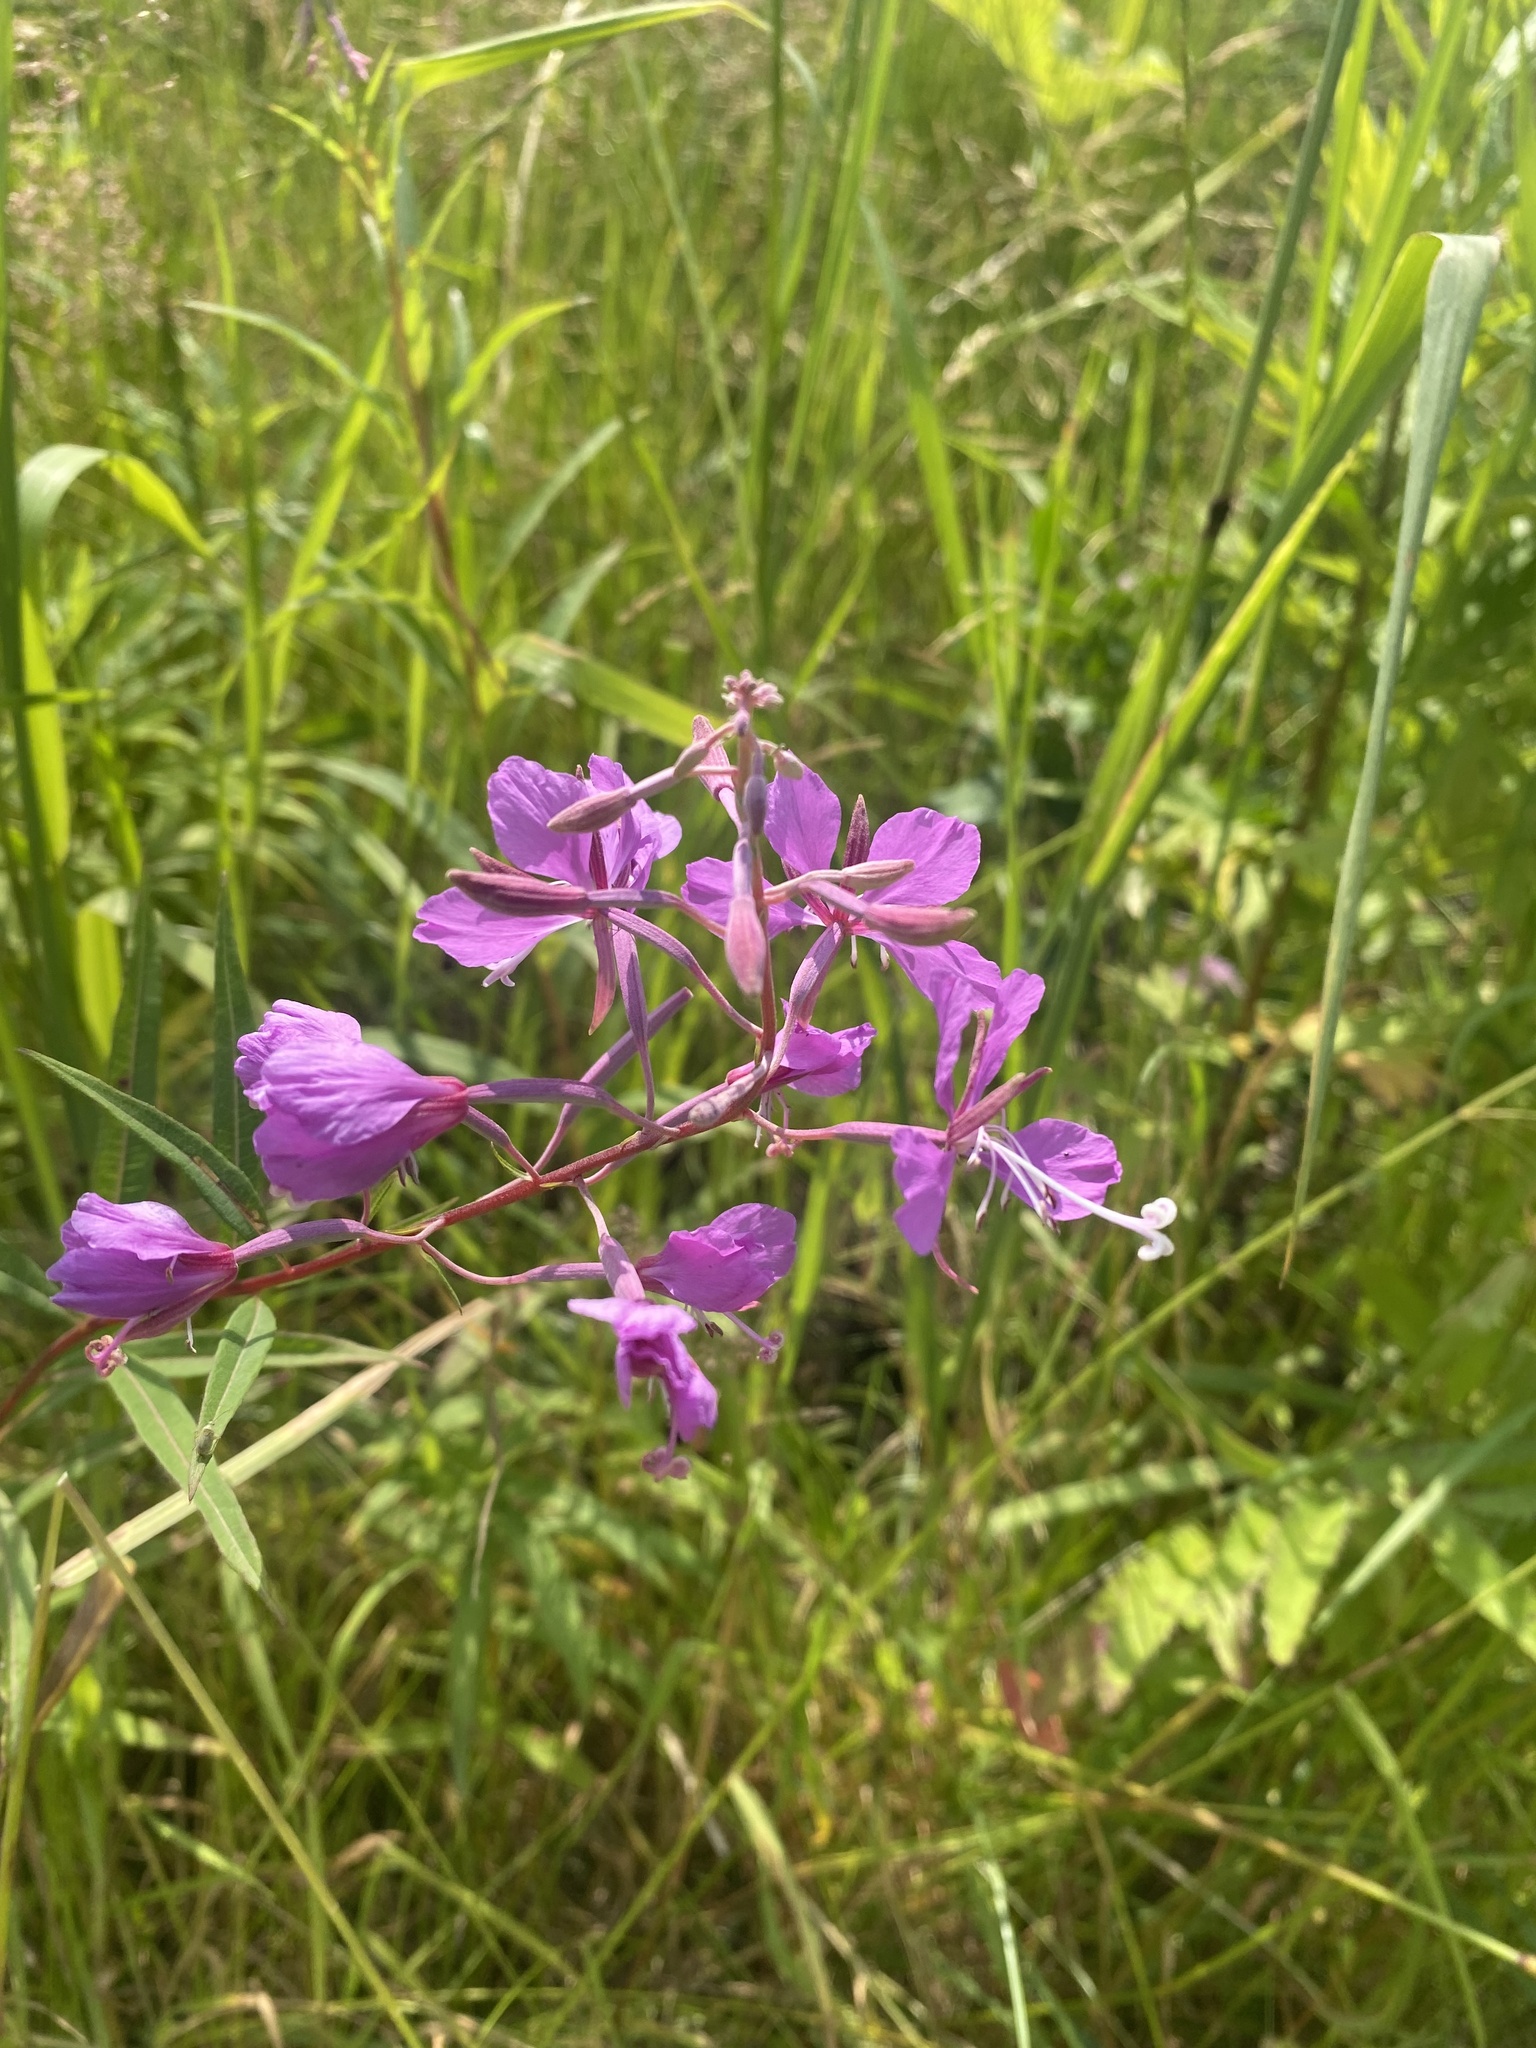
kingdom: Plantae
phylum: Tracheophyta
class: Magnoliopsida
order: Myrtales
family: Onagraceae
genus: Chamaenerion
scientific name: Chamaenerion angustifolium
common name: Fireweed
